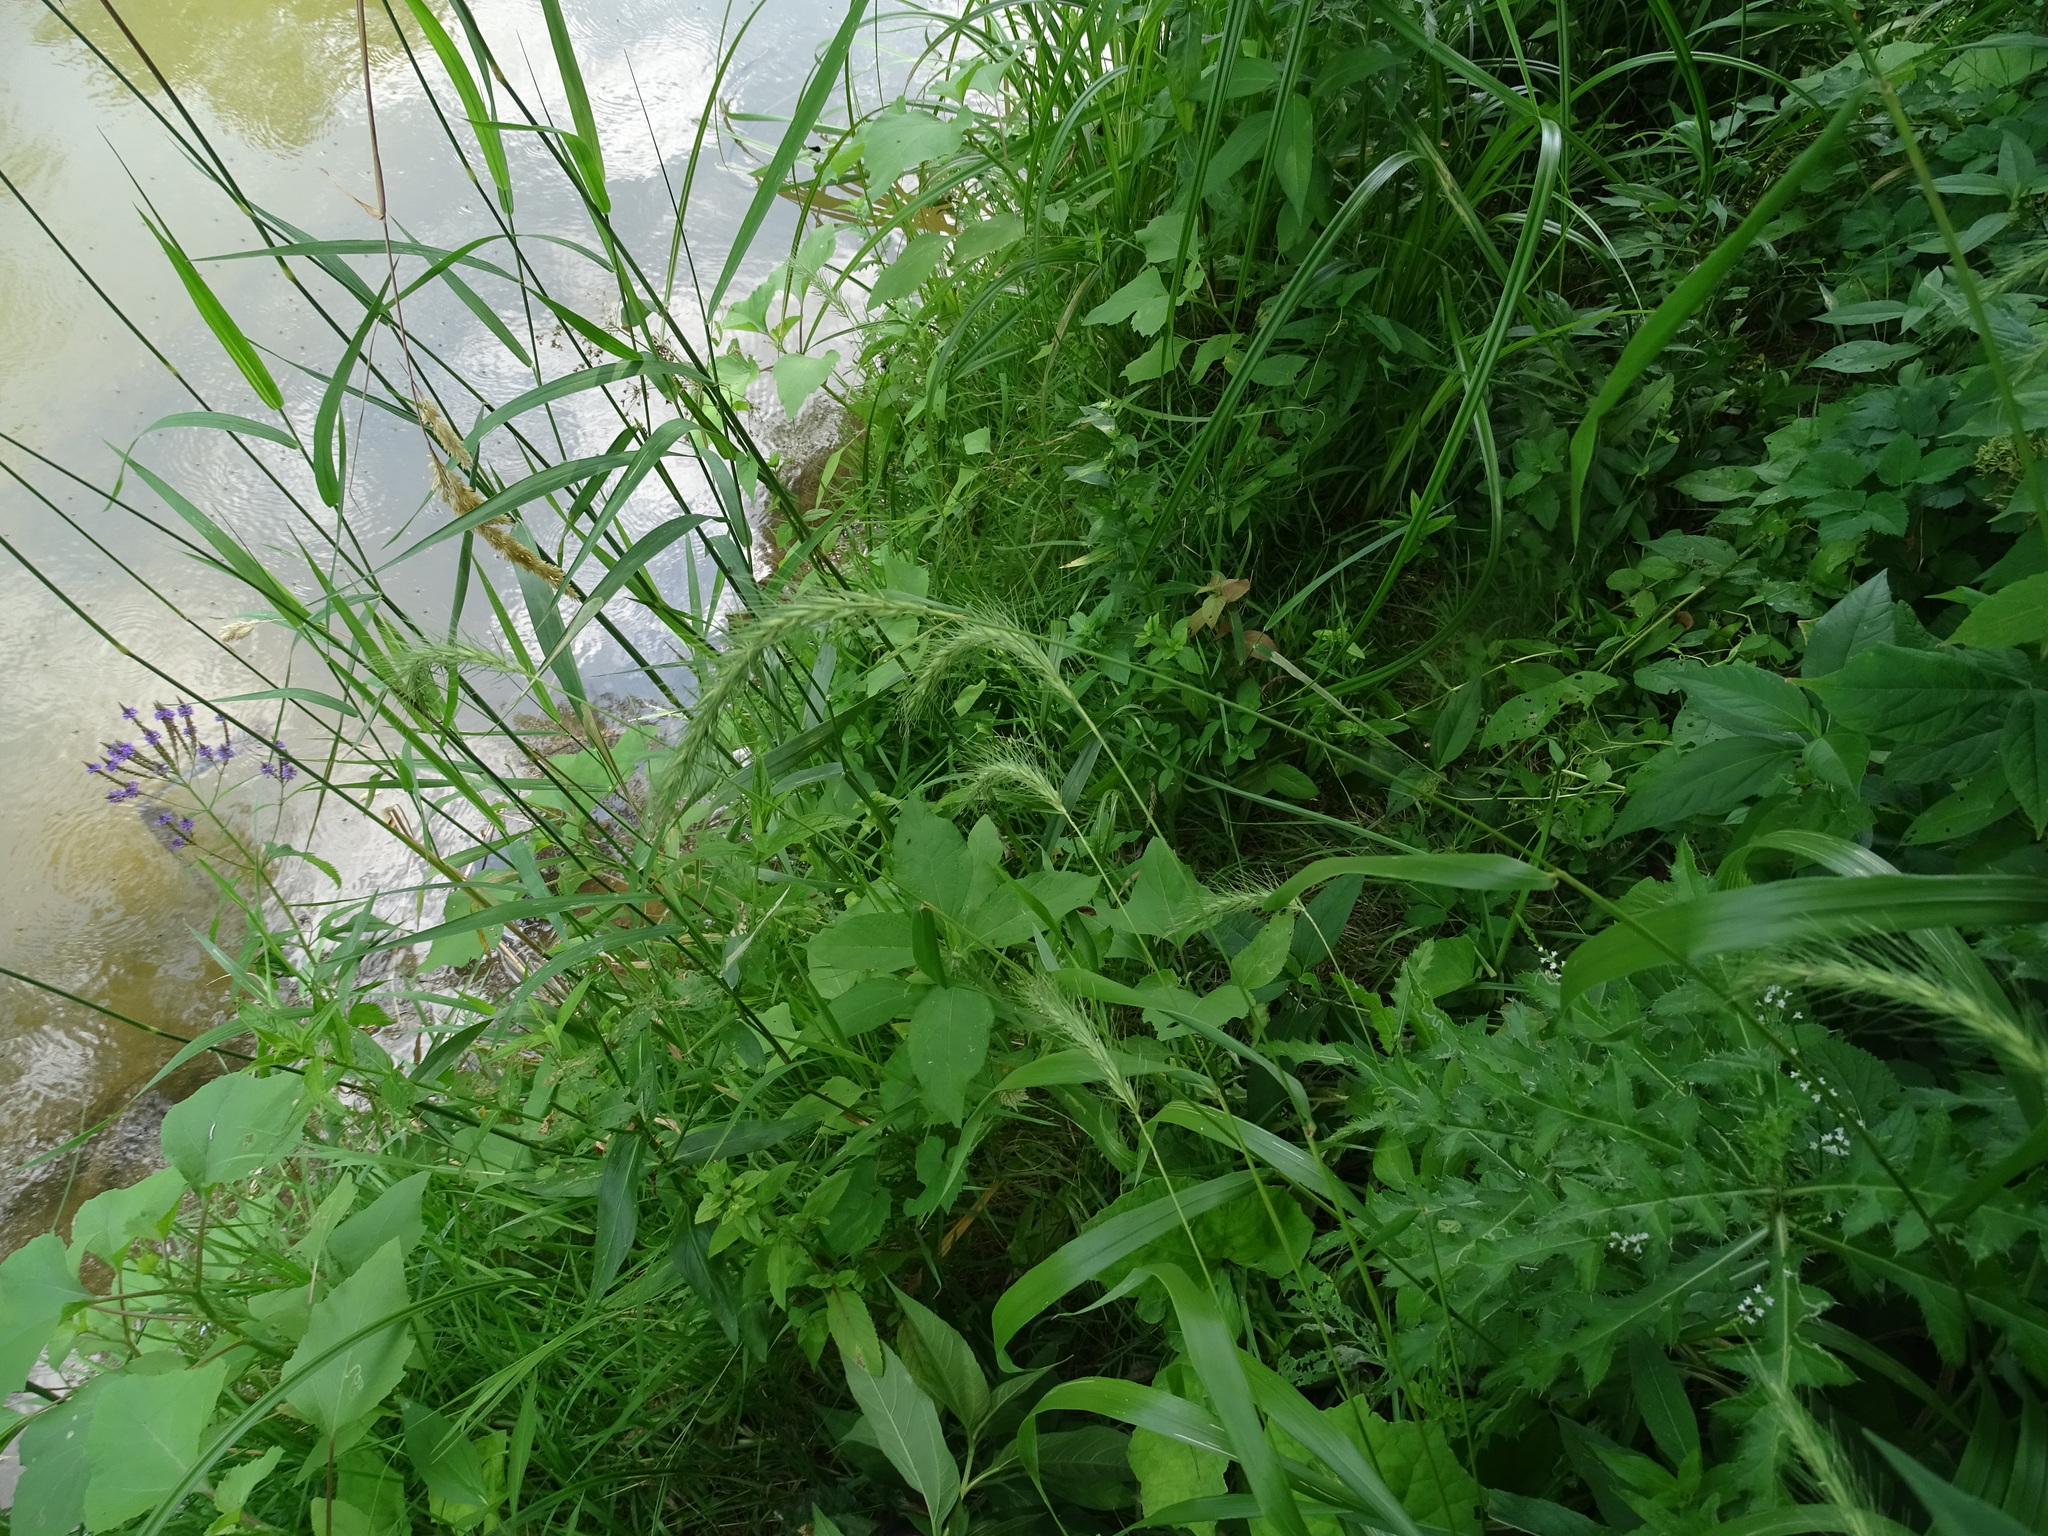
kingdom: Plantae
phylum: Tracheophyta
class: Liliopsida
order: Poales
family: Poaceae
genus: Elymus
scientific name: Elymus riparius
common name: Eastern riverbank wild rye
